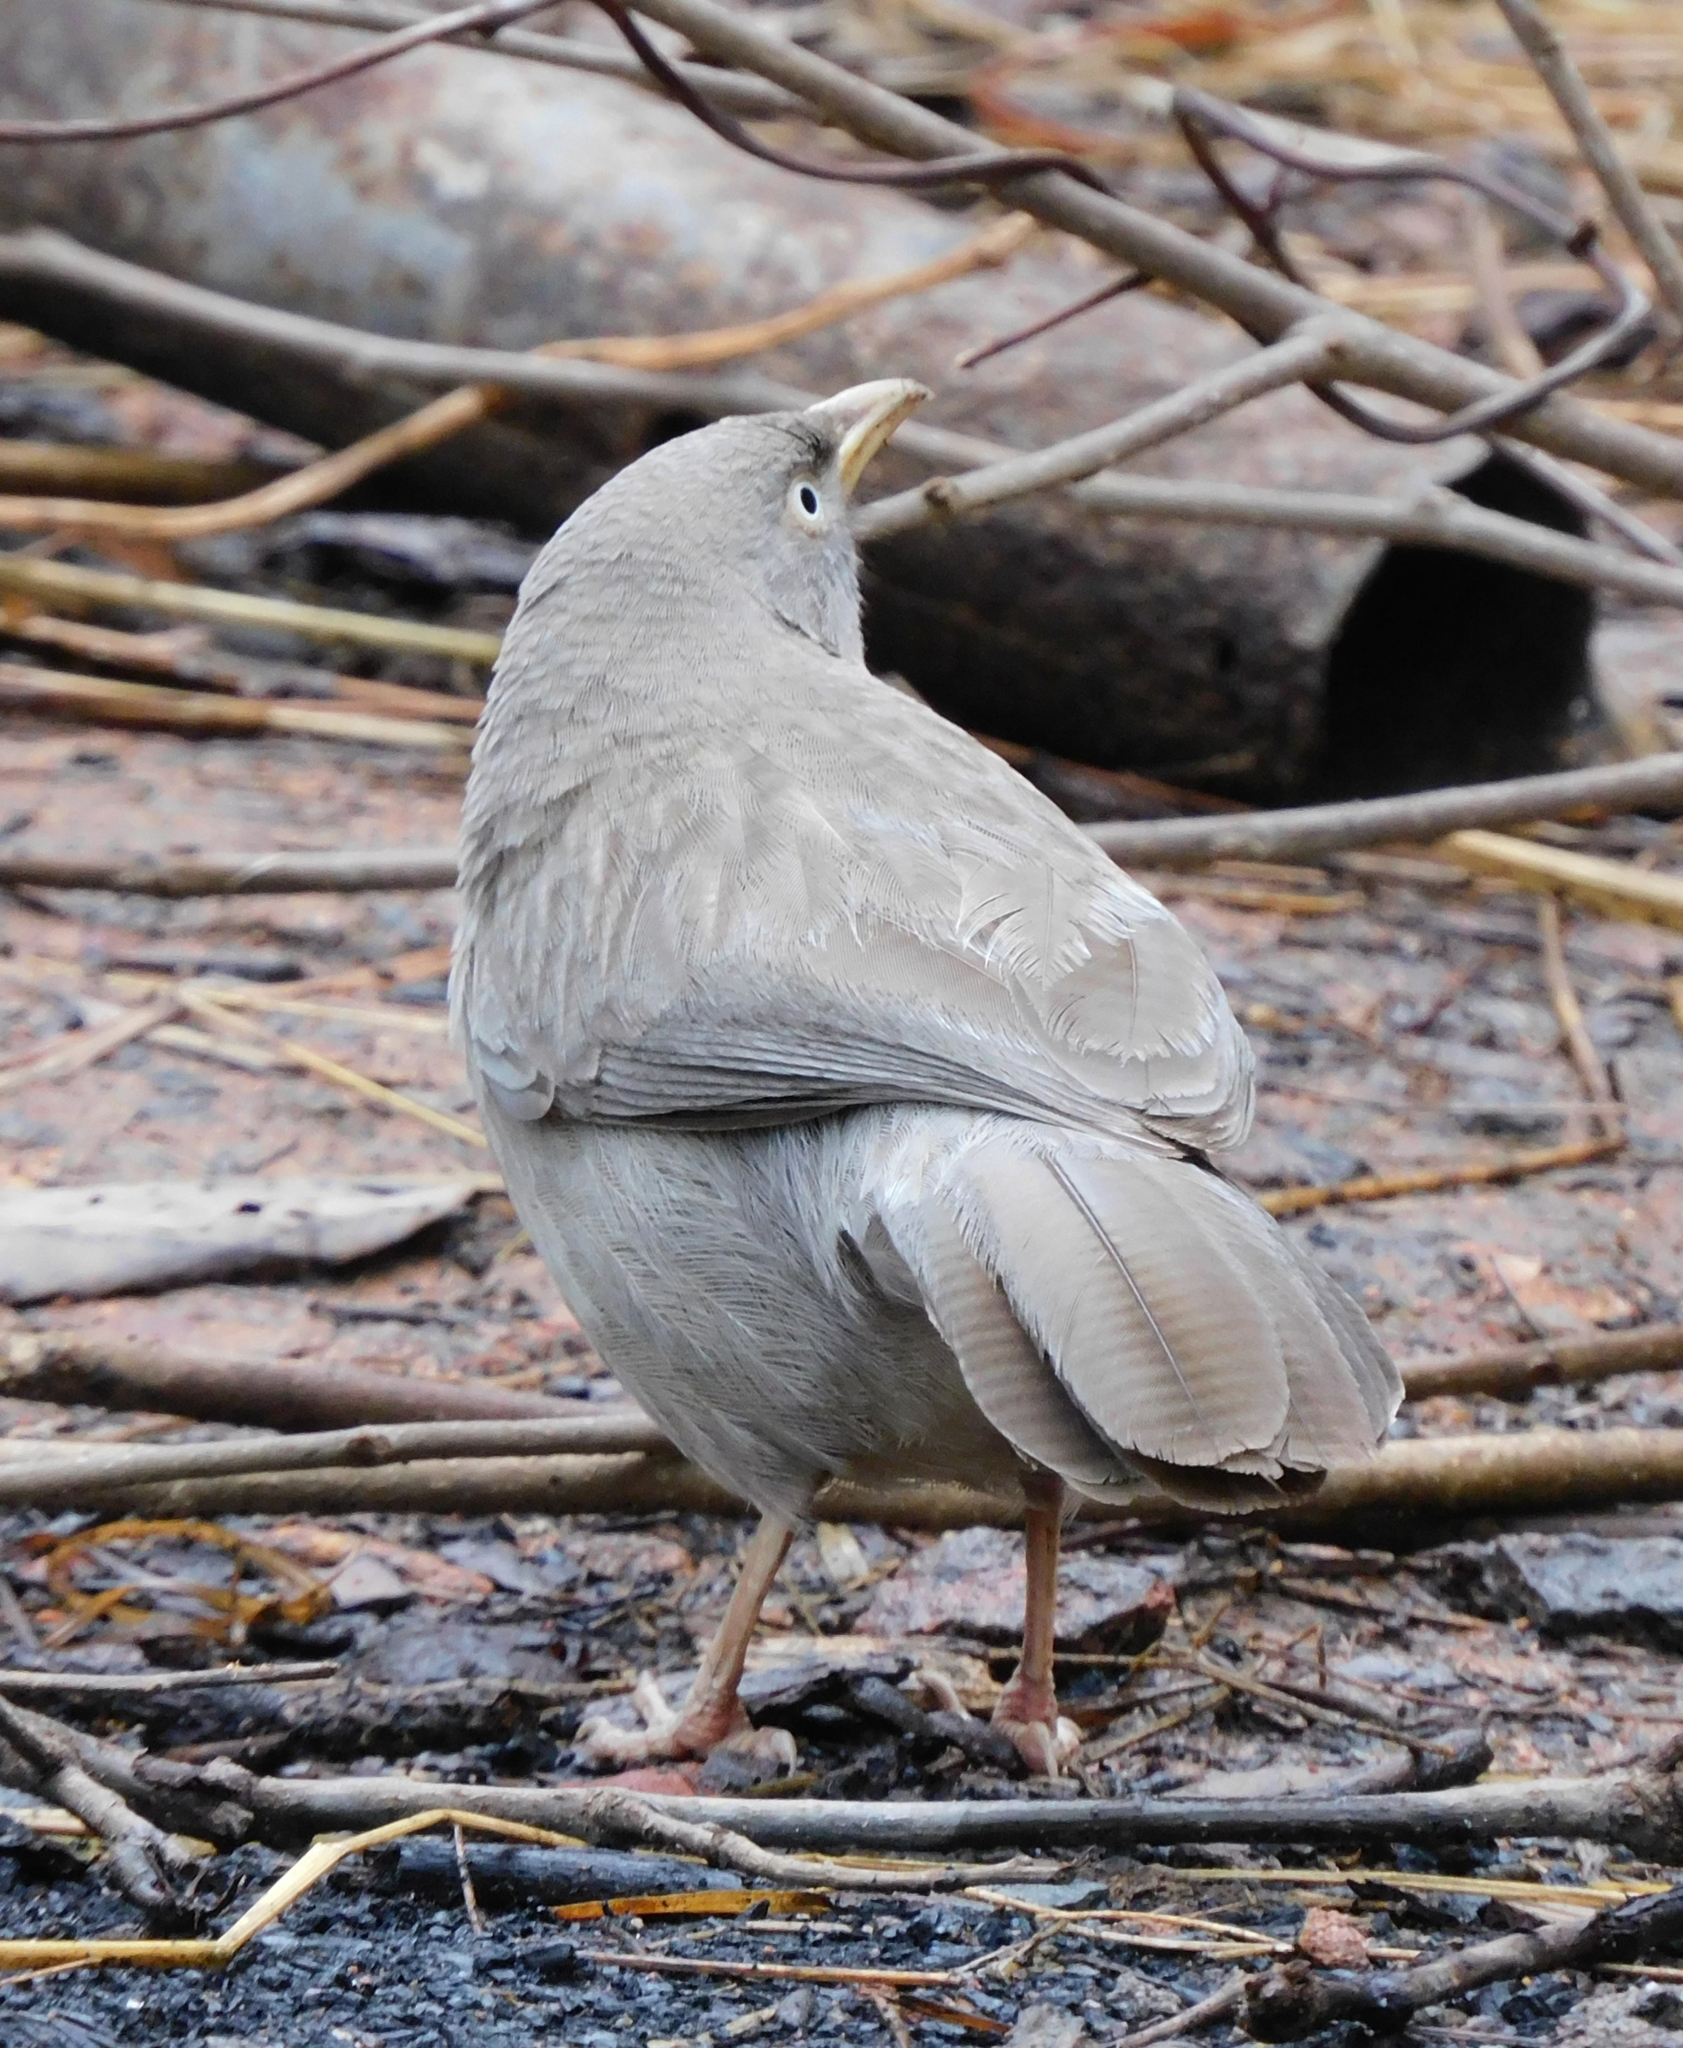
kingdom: Animalia
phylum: Chordata
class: Aves
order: Passeriformes
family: Leiothrichidae
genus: Turdoides
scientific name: Turdoides striata
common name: Jungle babbler
